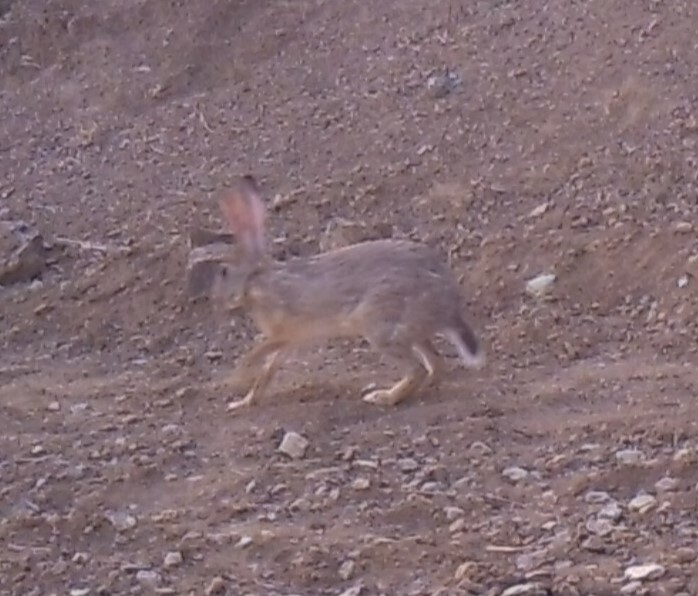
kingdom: Animalia
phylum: Chordata
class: Mammalia
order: Lagomorpha
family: Leporidae
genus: Lepus
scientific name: Lepus nigricollis
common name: Indian hare
